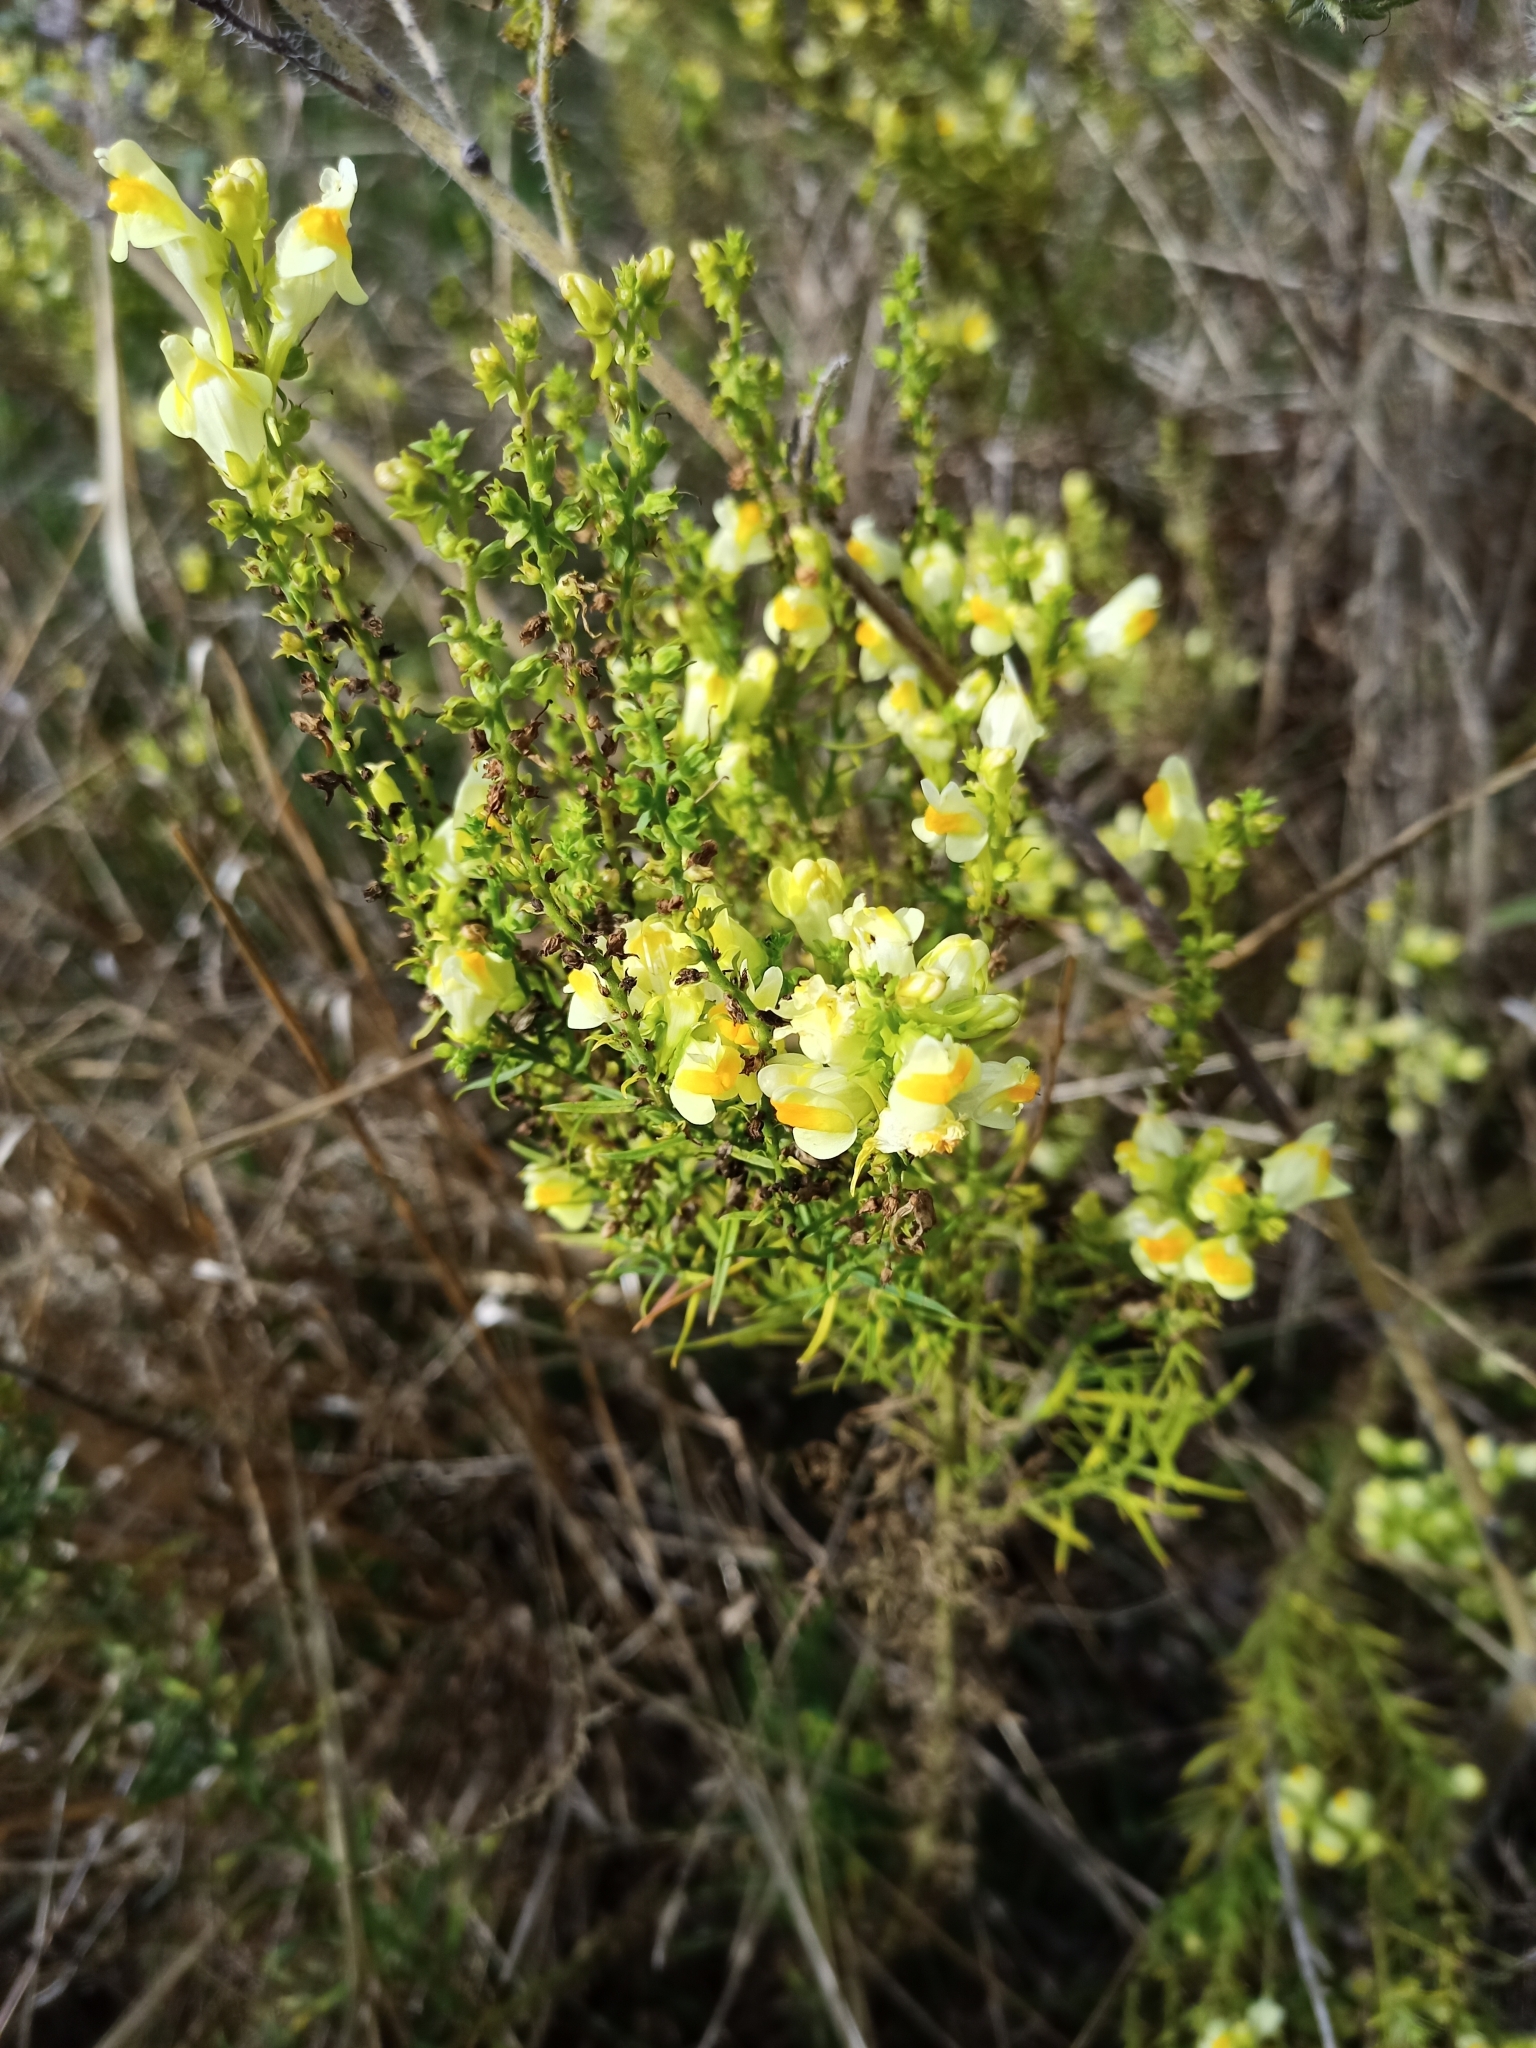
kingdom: Plantae
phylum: Tracheophyta
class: Magnoliopsida
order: Lamiales
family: Plantaginaceae
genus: Linaria
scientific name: Linaria vulgaris
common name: Butter and eggs
